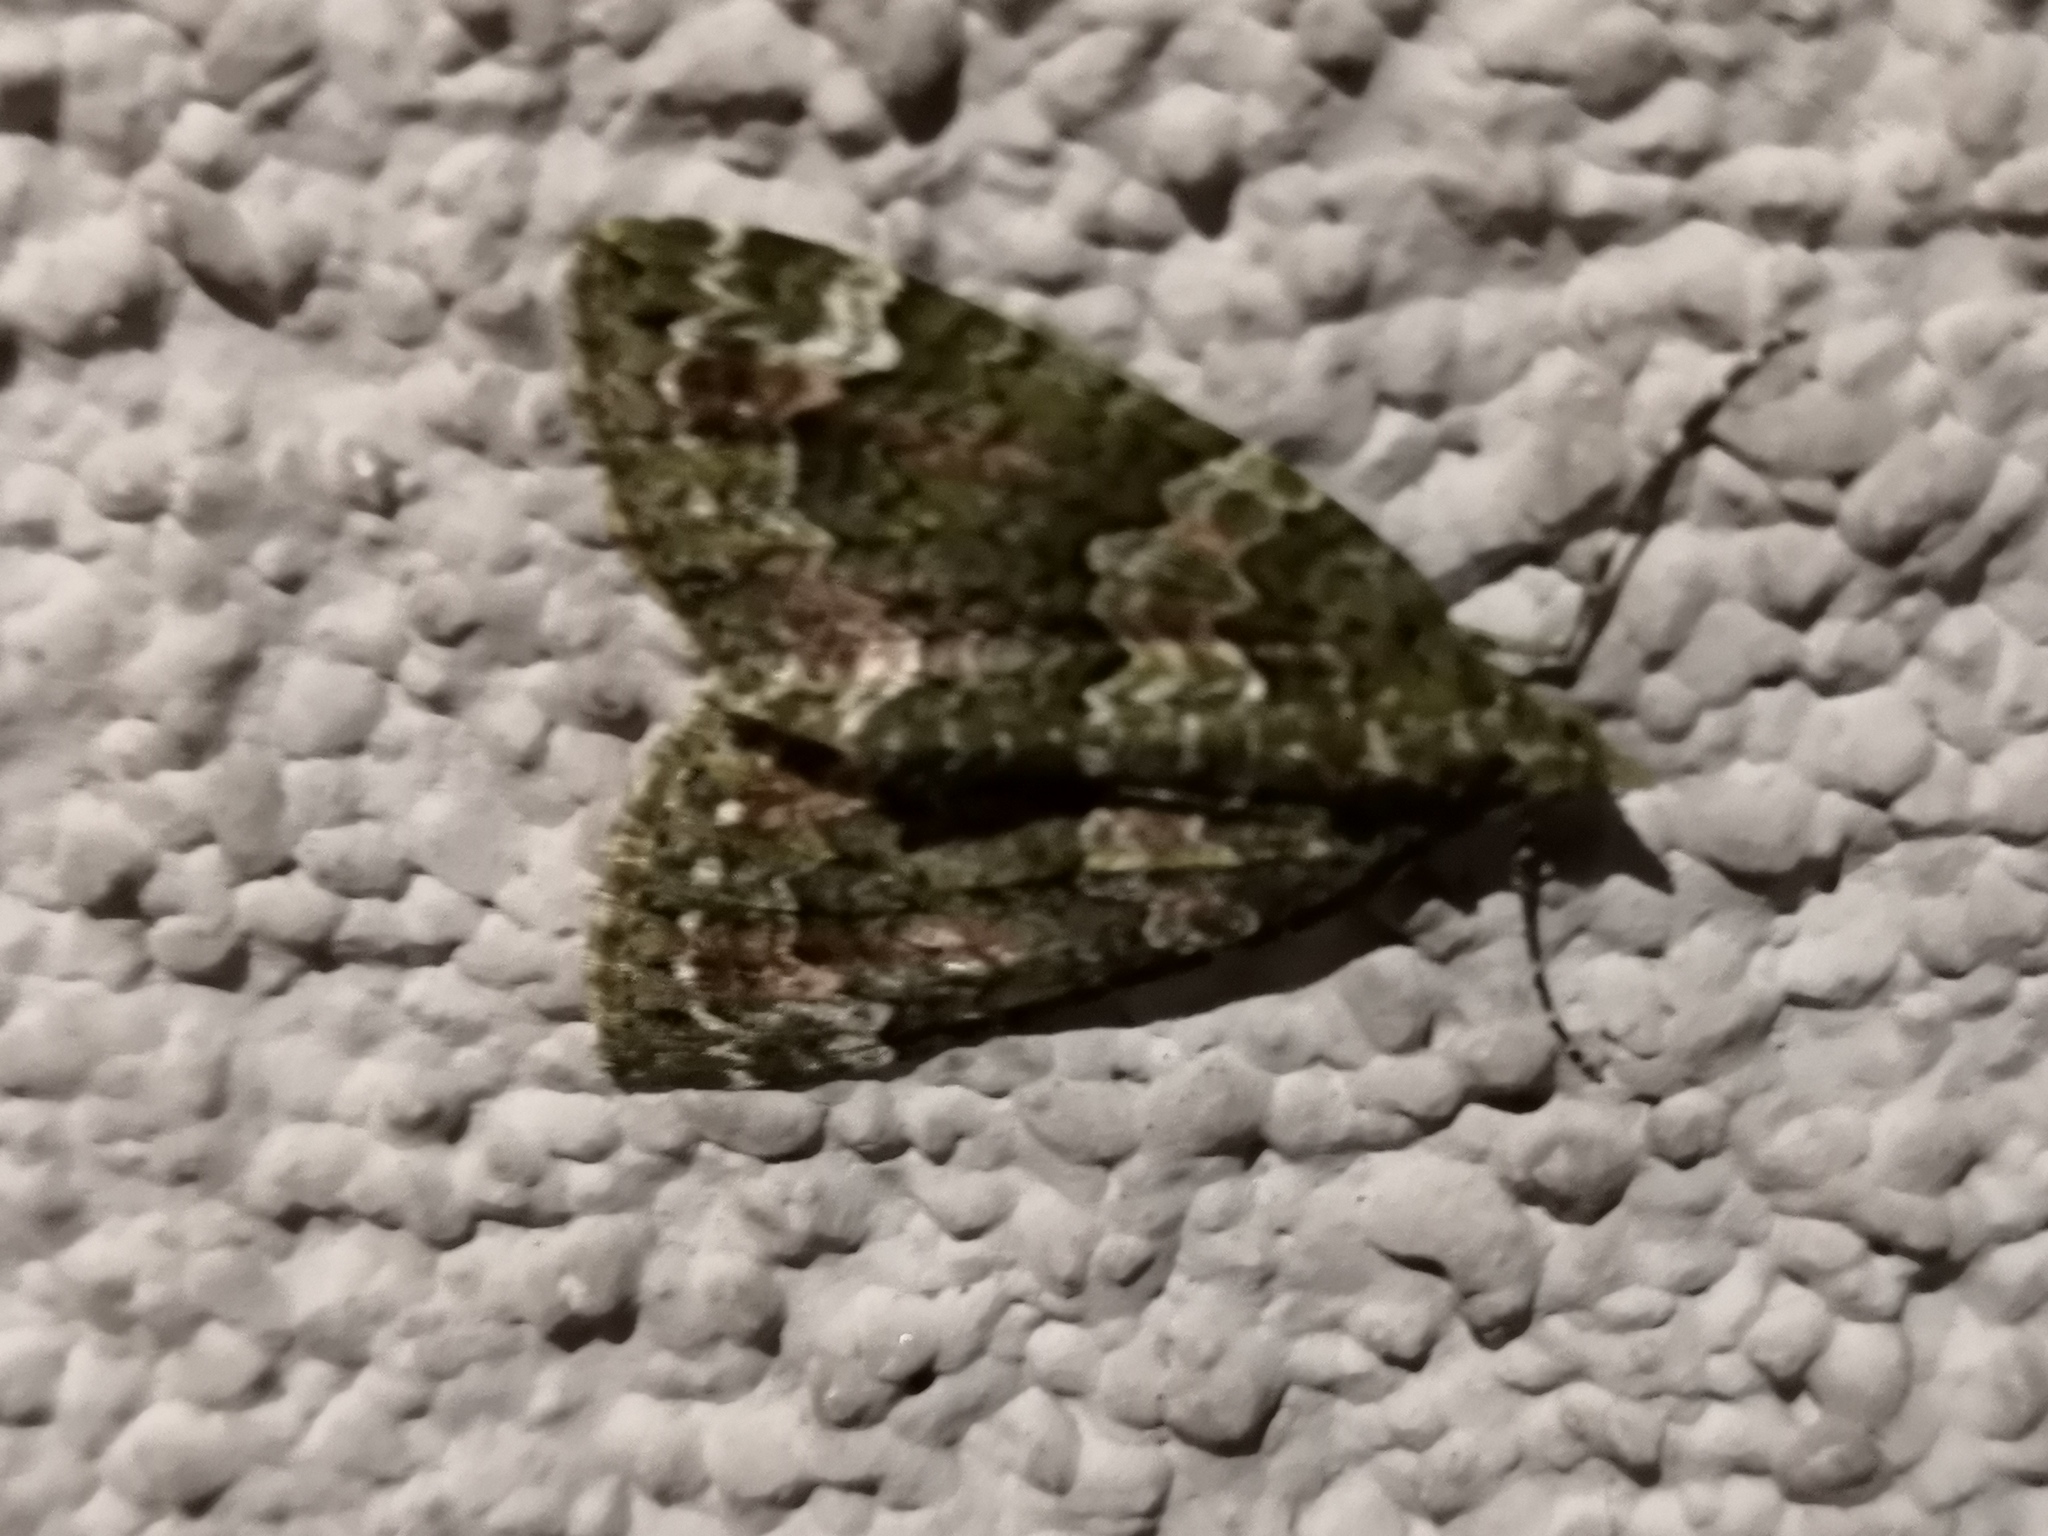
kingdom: Animalia
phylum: Arthropoda
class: Insecta
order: Lepidoptera
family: Geometridae
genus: Chloroclysta
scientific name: Chloroclysta siterata
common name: Red-green carpet
